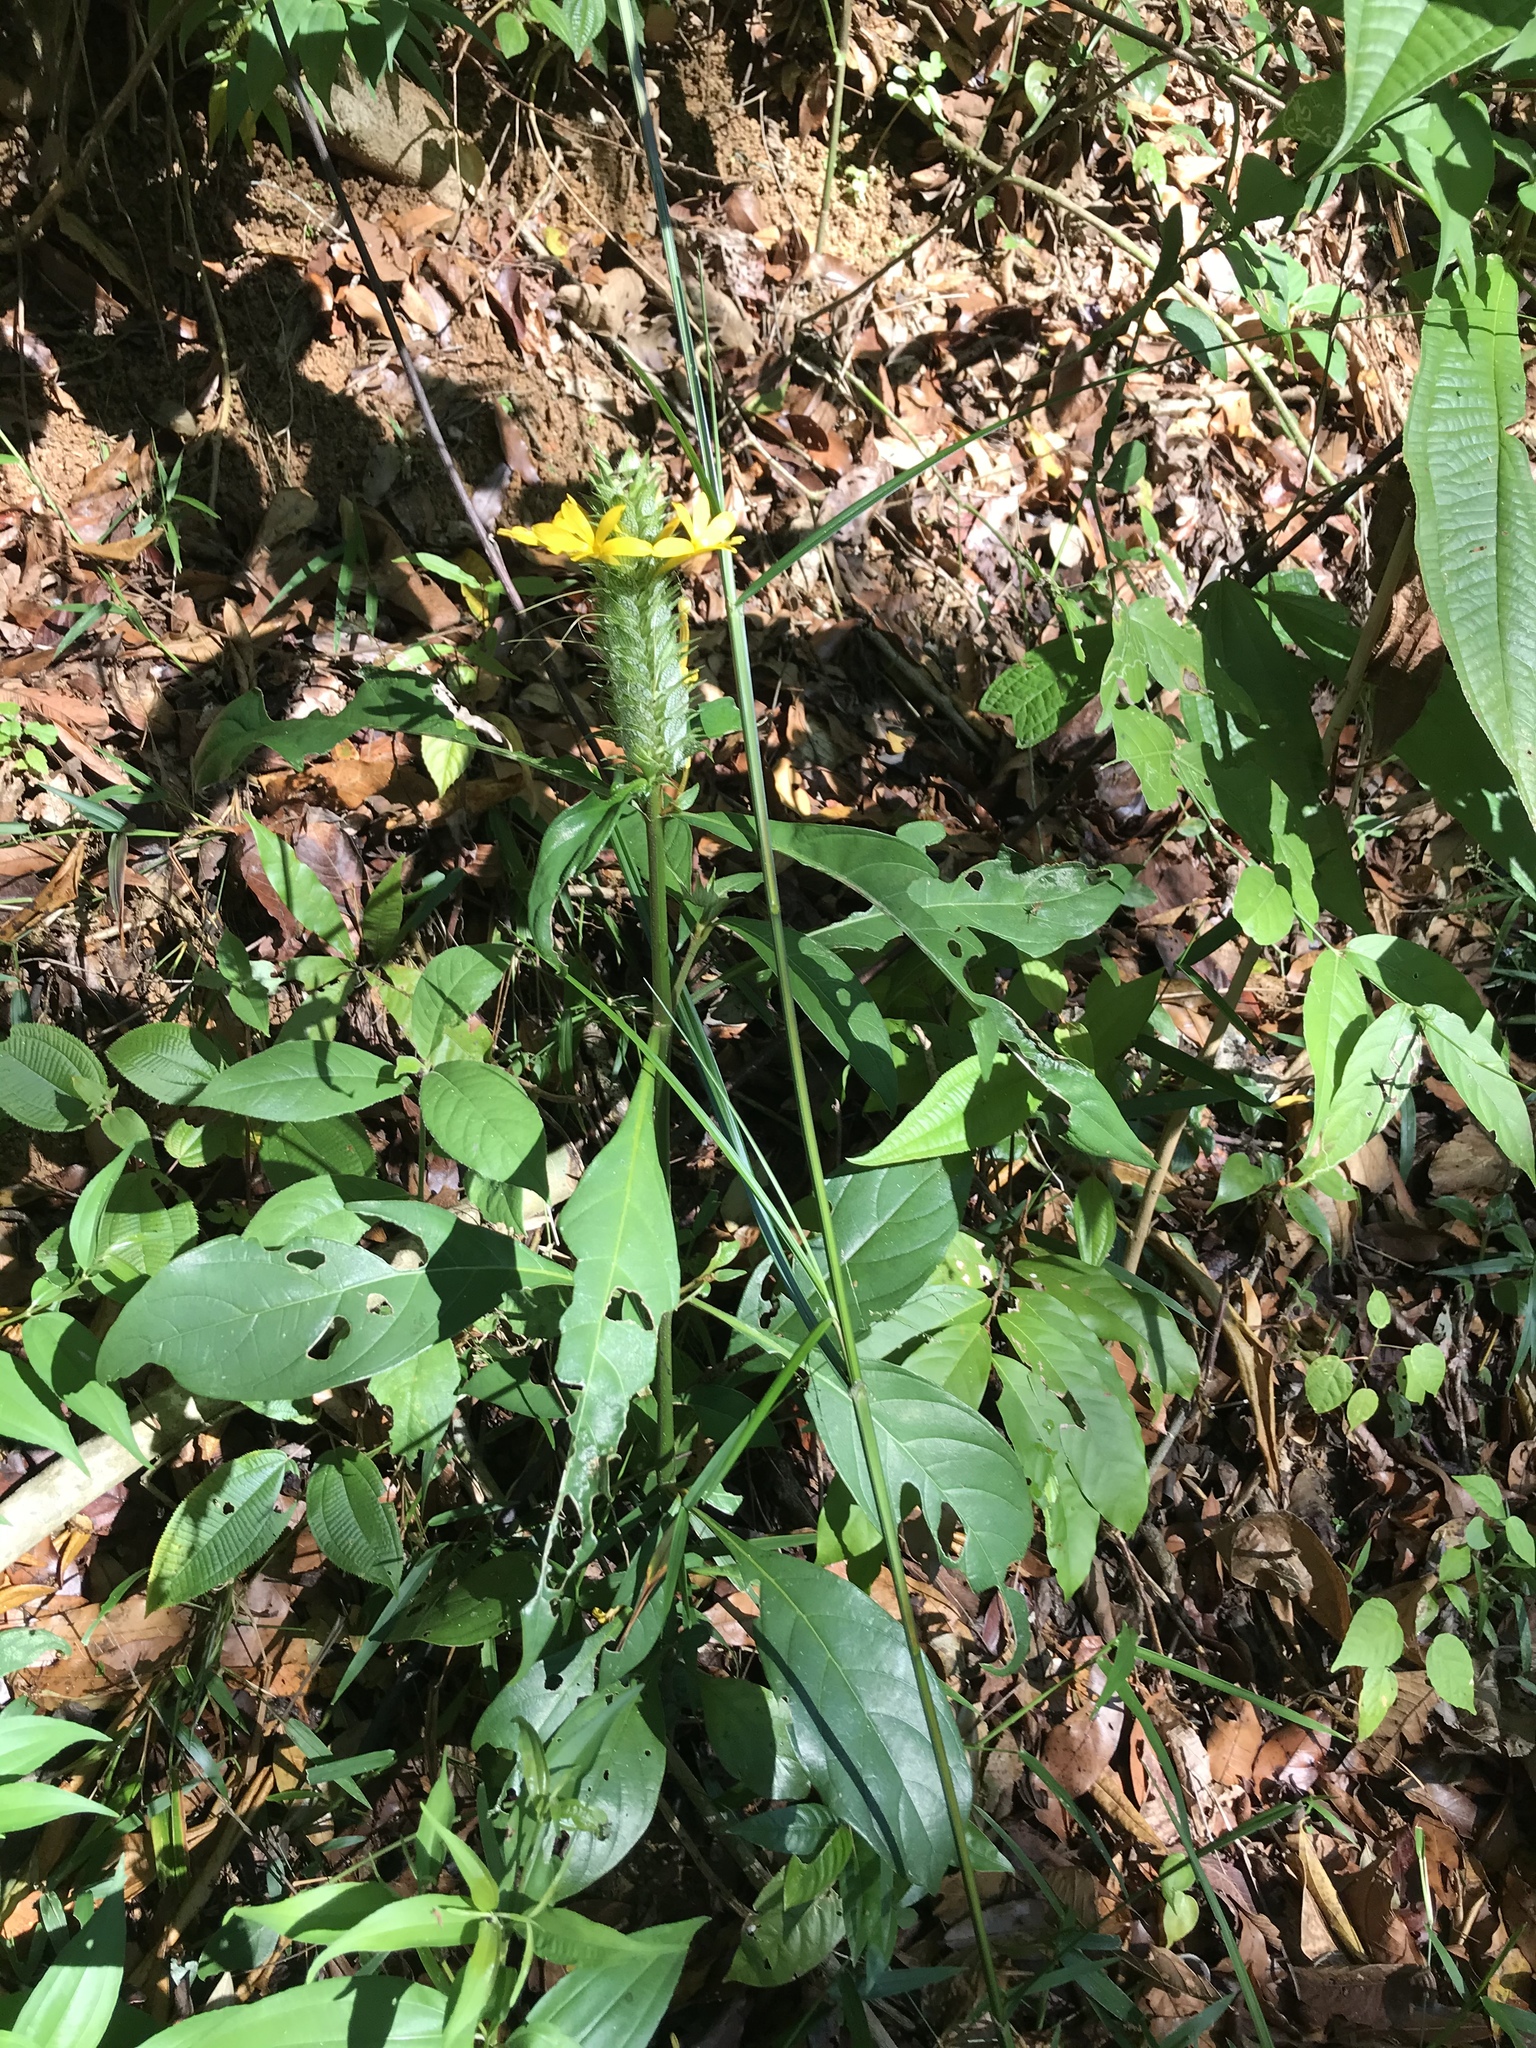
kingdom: Plantae
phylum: Tracheophyta
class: Magnoliopsida
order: Lamiales
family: Acanthaceae
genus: Barleria
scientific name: Barleria oenotheroides
